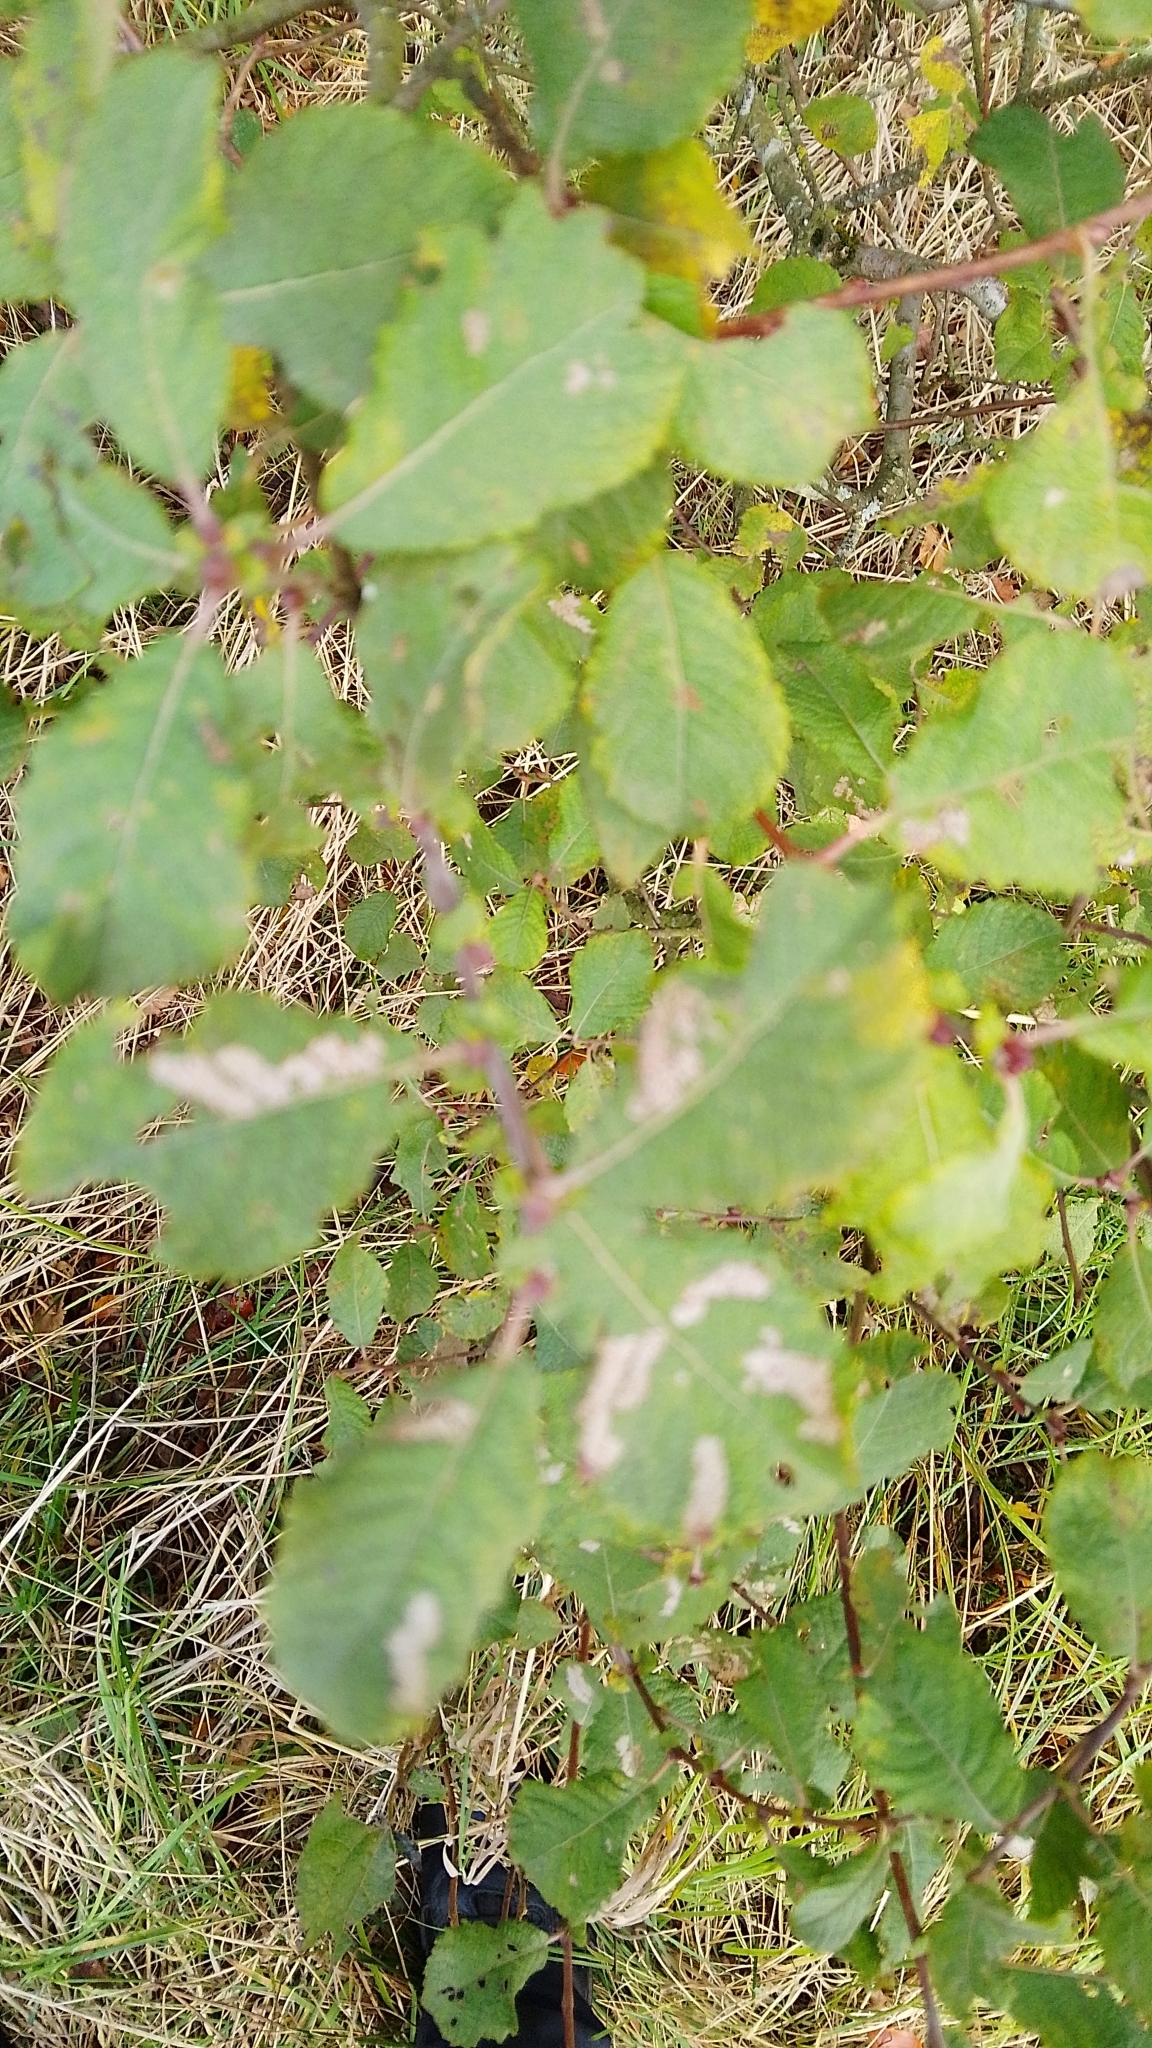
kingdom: Plantae
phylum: Tracheophyta
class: Magnoliopsida
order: Malpighiales
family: Salicaceae
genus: Salix
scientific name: Salix aurita
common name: Eared willow
